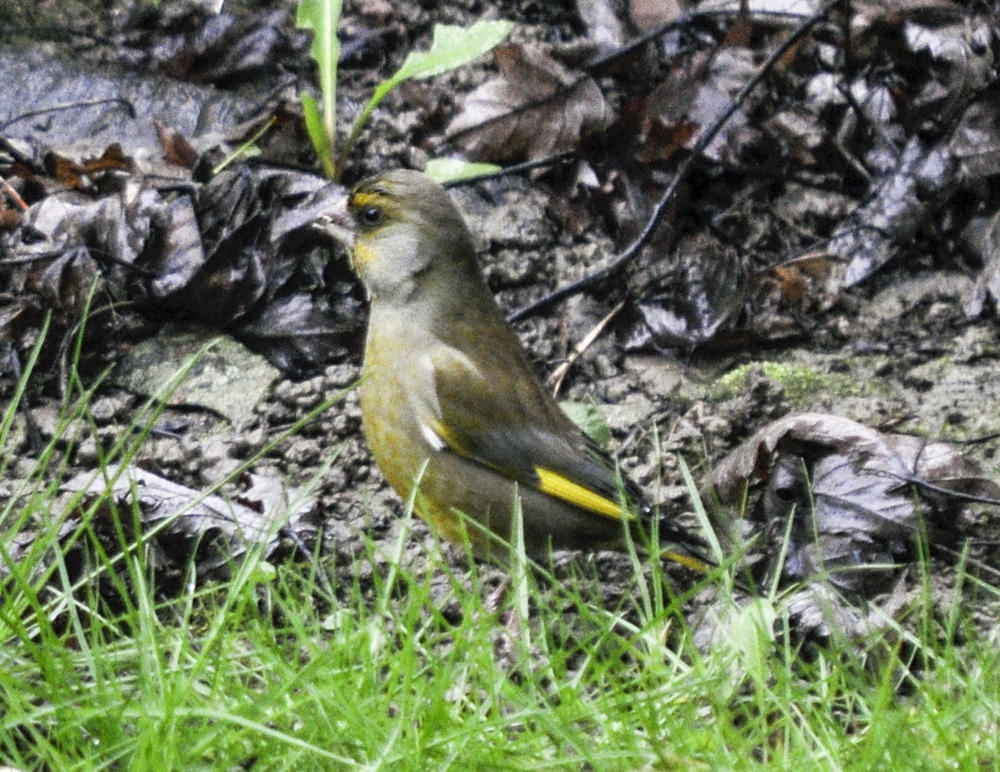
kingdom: Plantae
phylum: Tracheophyta
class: Liliopsida
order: Poales
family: Poaceae
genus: Chloris
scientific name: Chloris chloris
